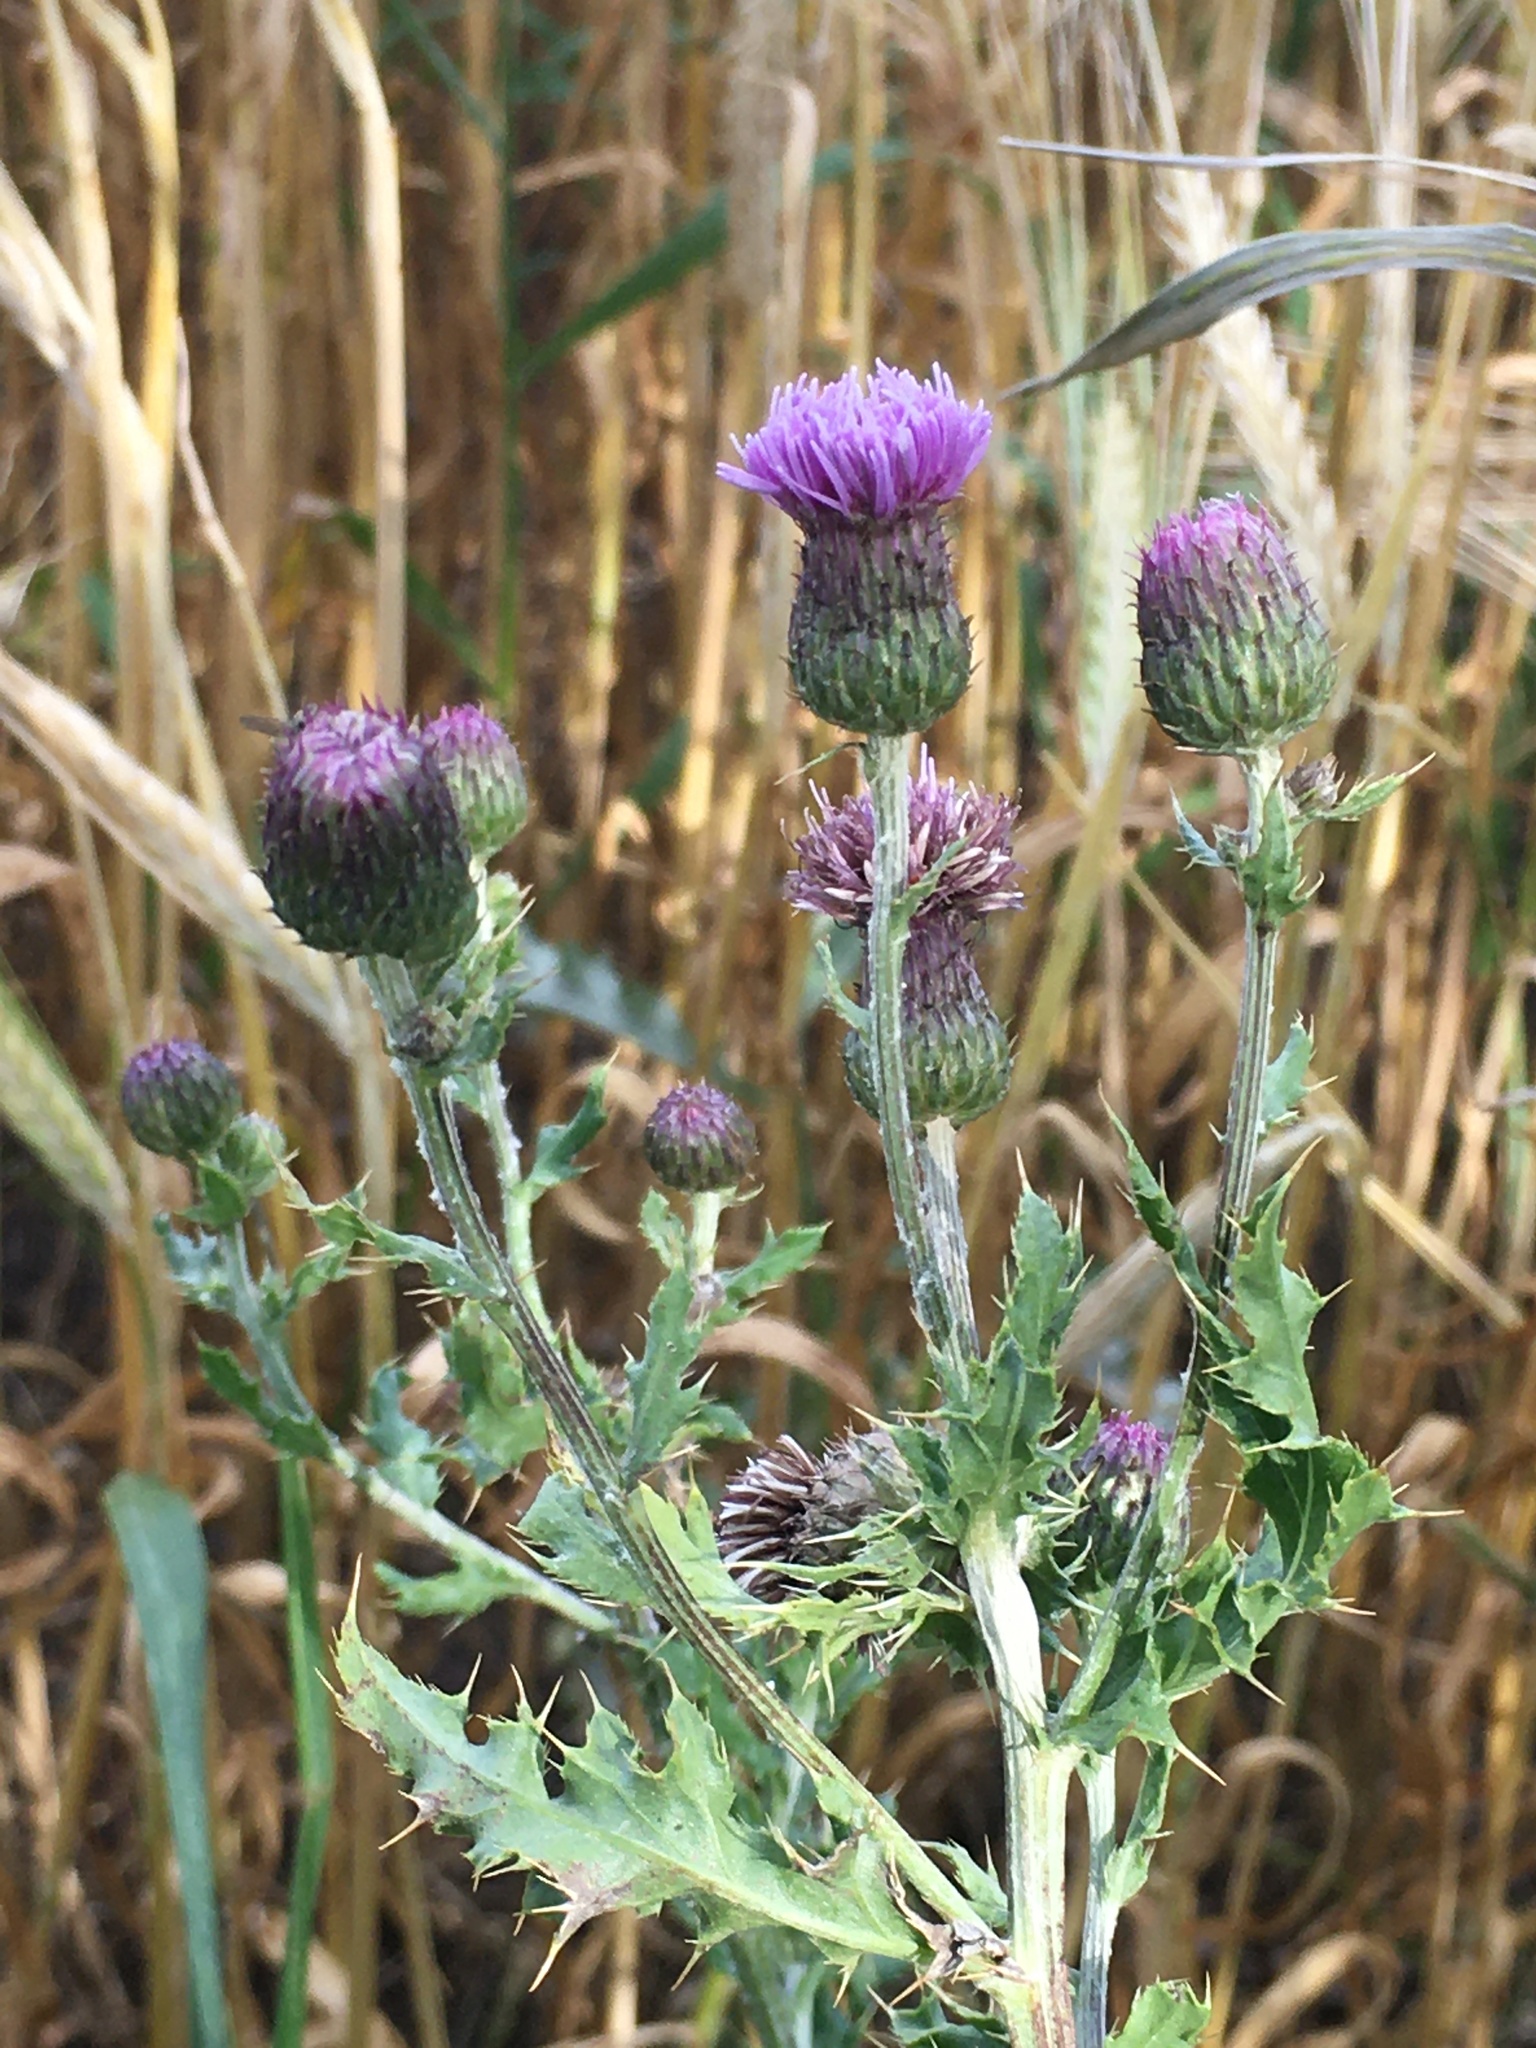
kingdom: Plantae
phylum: Tracheophyta
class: Magnoliopsida
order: Asterales
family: Asteraceae
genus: Cirsium
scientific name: Cirsium arvense
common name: Creeping thistle
